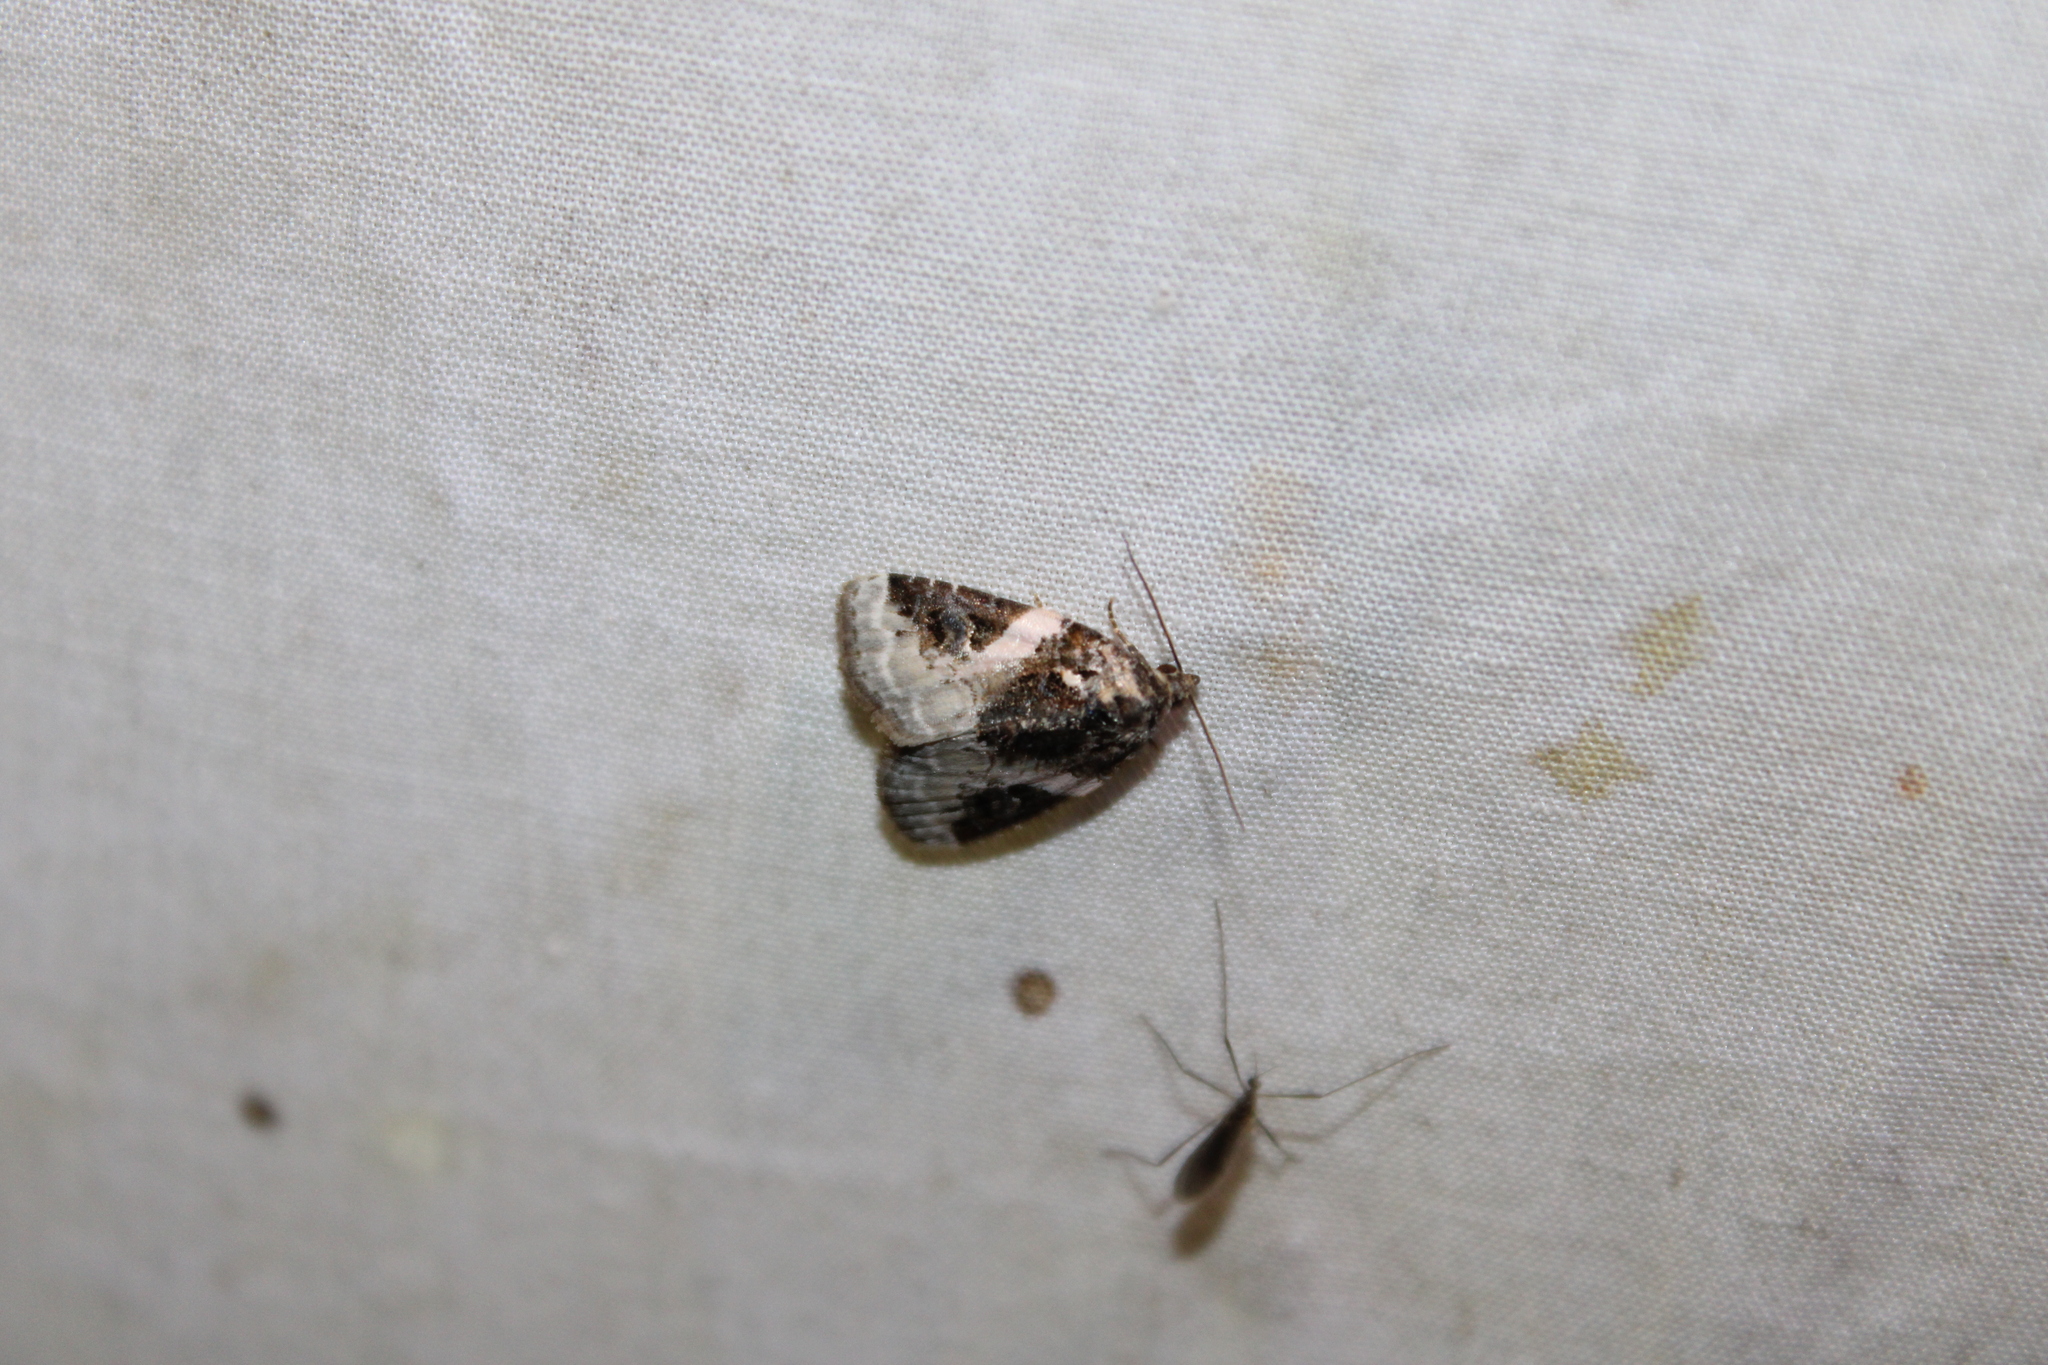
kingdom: Animalia
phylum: Arthropoda
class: Insecta
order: Lepidoptera
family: Noctuidae
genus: Pseudeustrotia
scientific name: Pseudeustrotia carneola
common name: Pink-barred lithacodia moth
